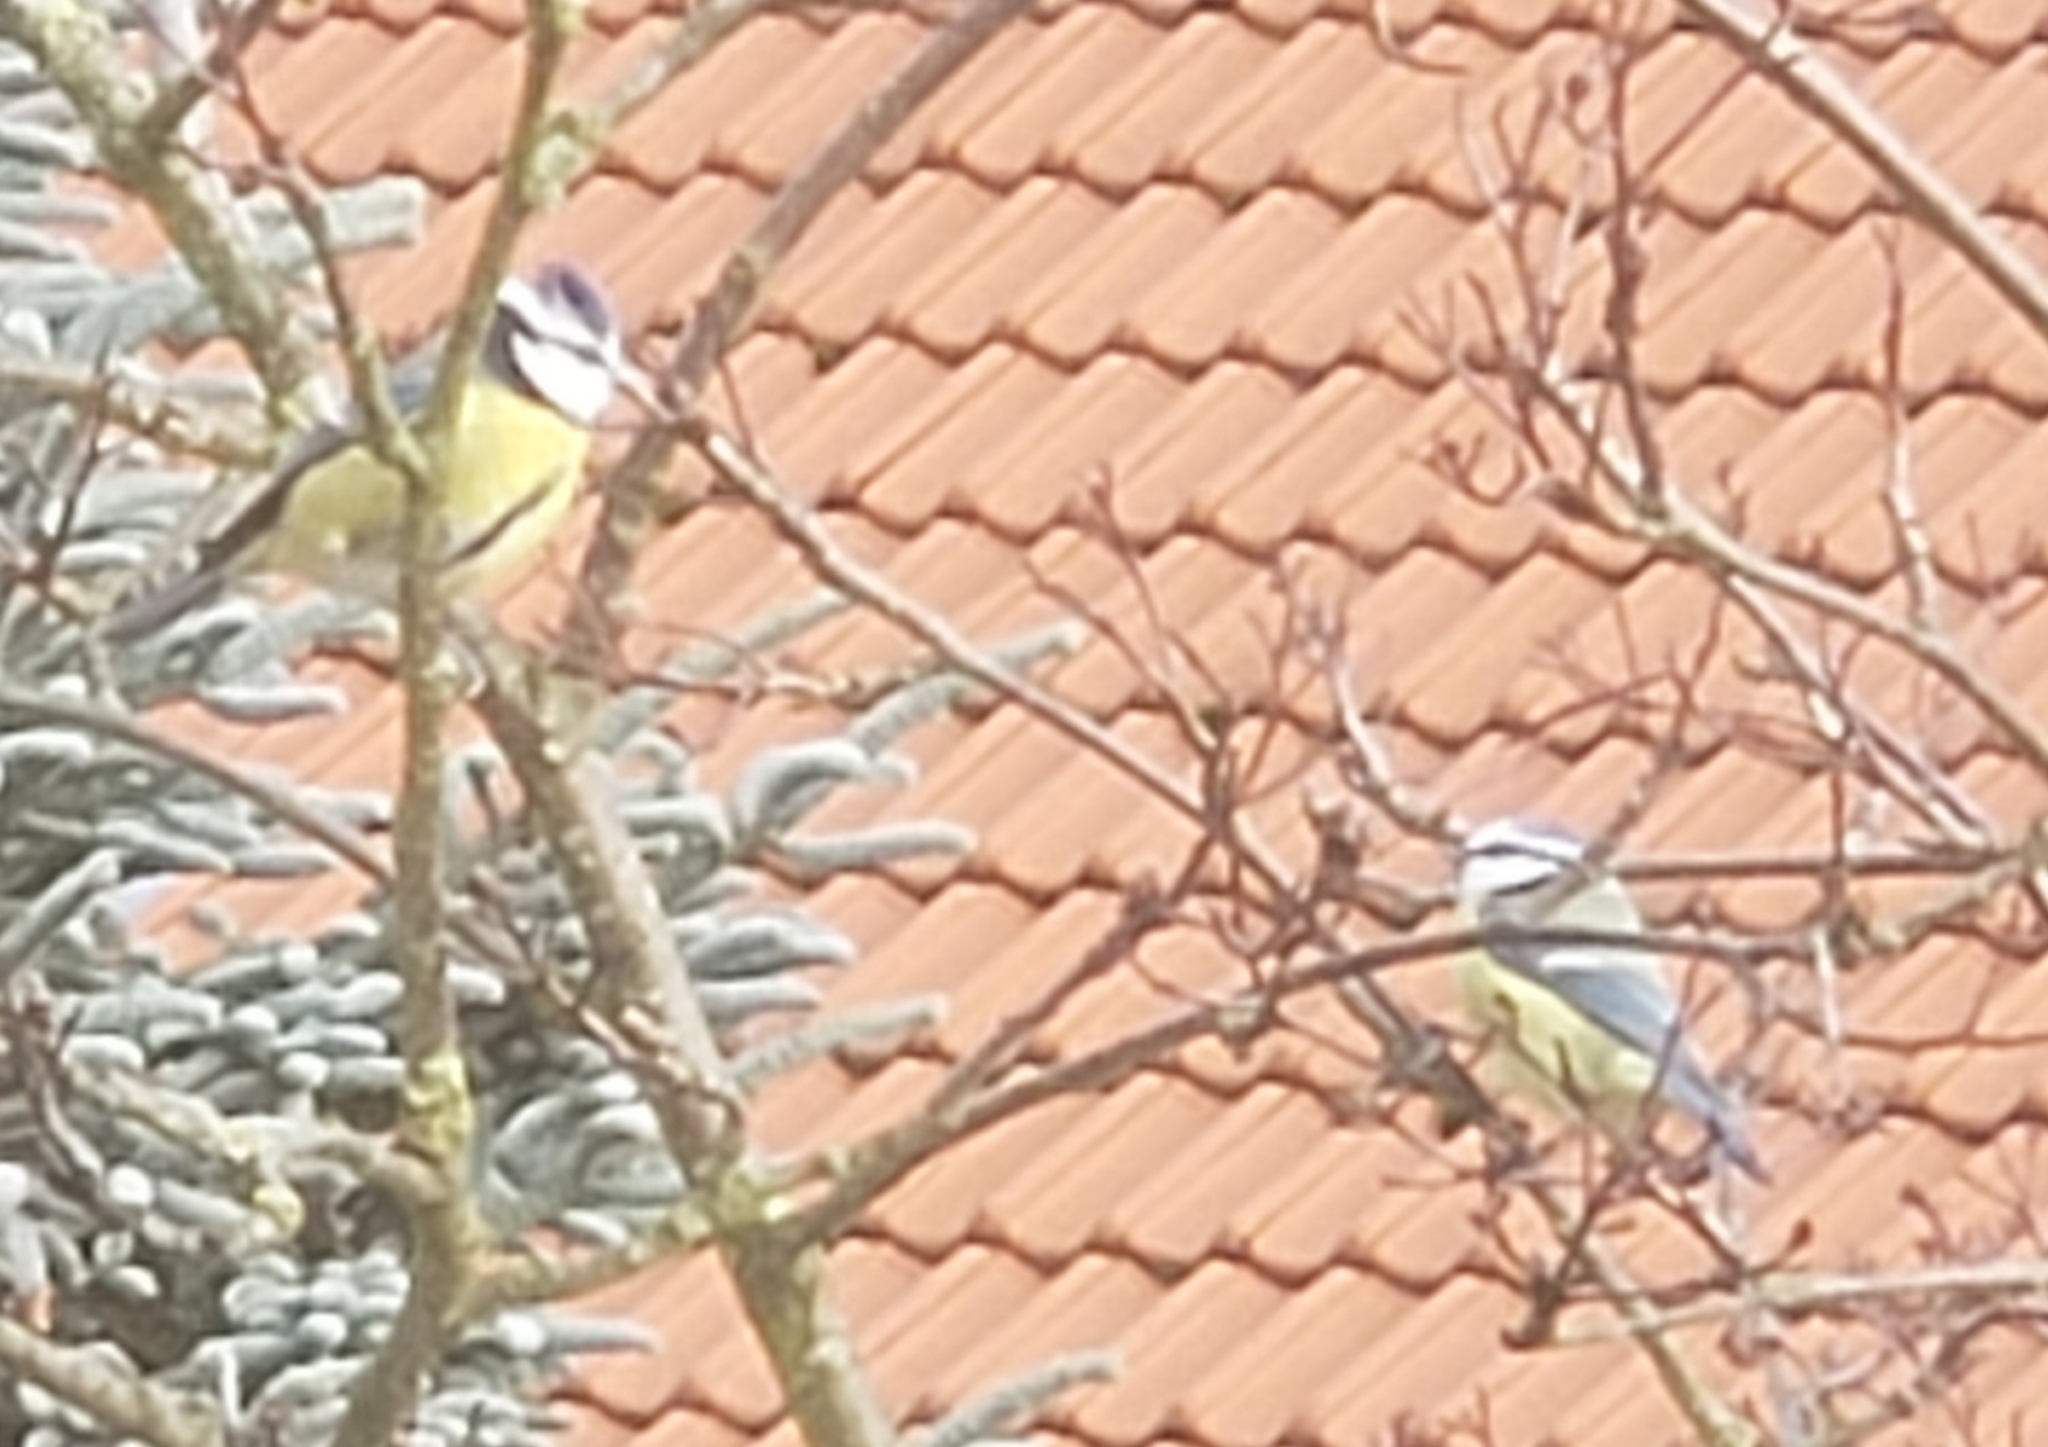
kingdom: Animalia
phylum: Chordata
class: Aves
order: Passeriformes
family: Paridae
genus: Cyanistes
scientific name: Cyanistes caeruleus
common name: Eurasian blue tit
